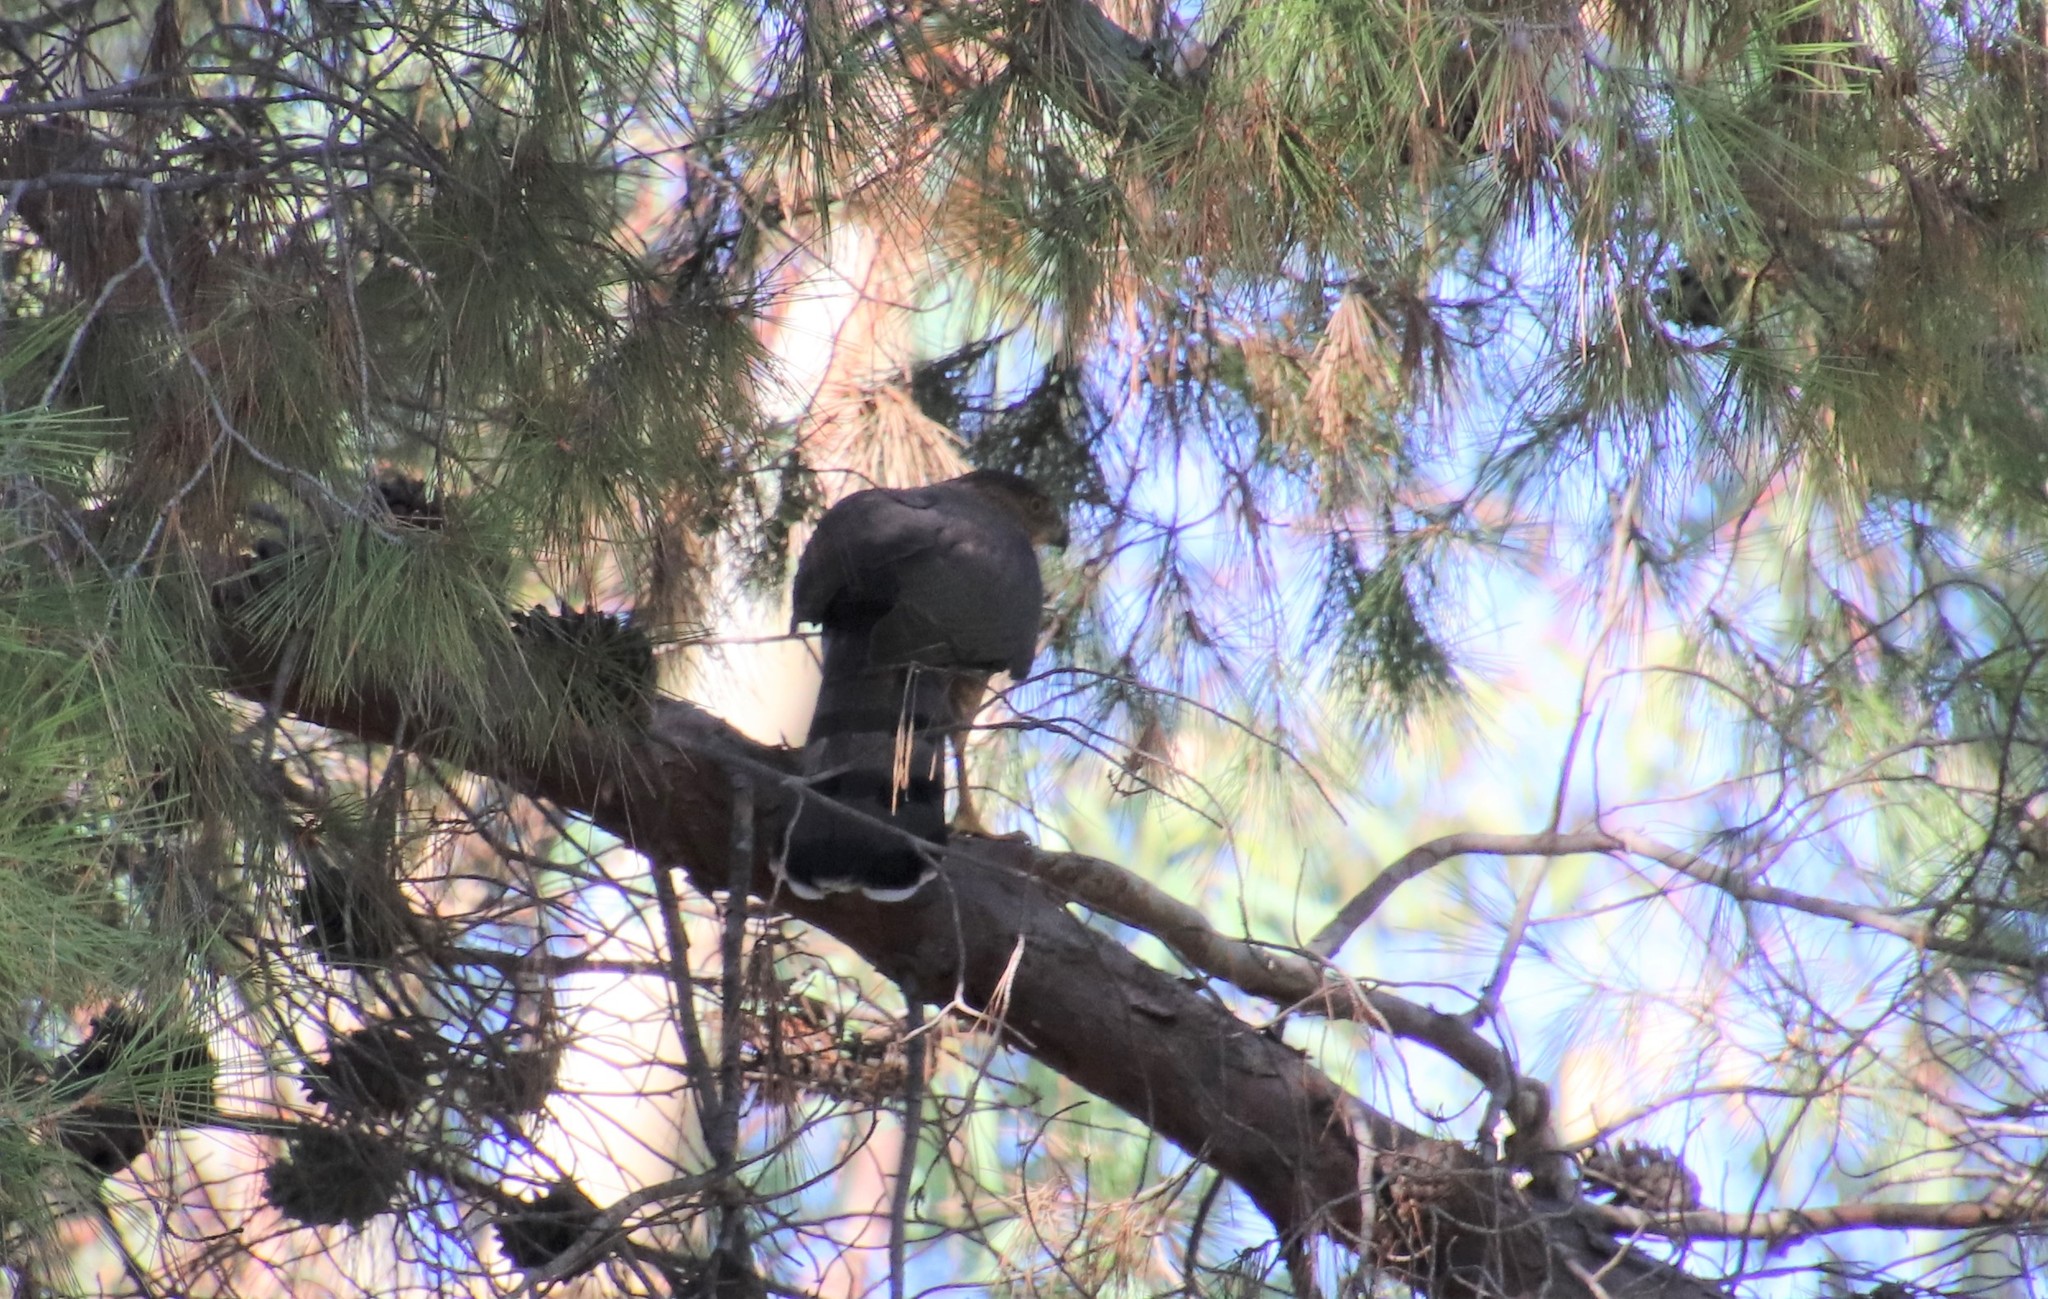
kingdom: Animalia
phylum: Chordata
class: Aves
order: Accipitriformes
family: Accipitridae
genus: Accipiter
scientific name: Accipiter cooperii
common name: Cooper's hawk
